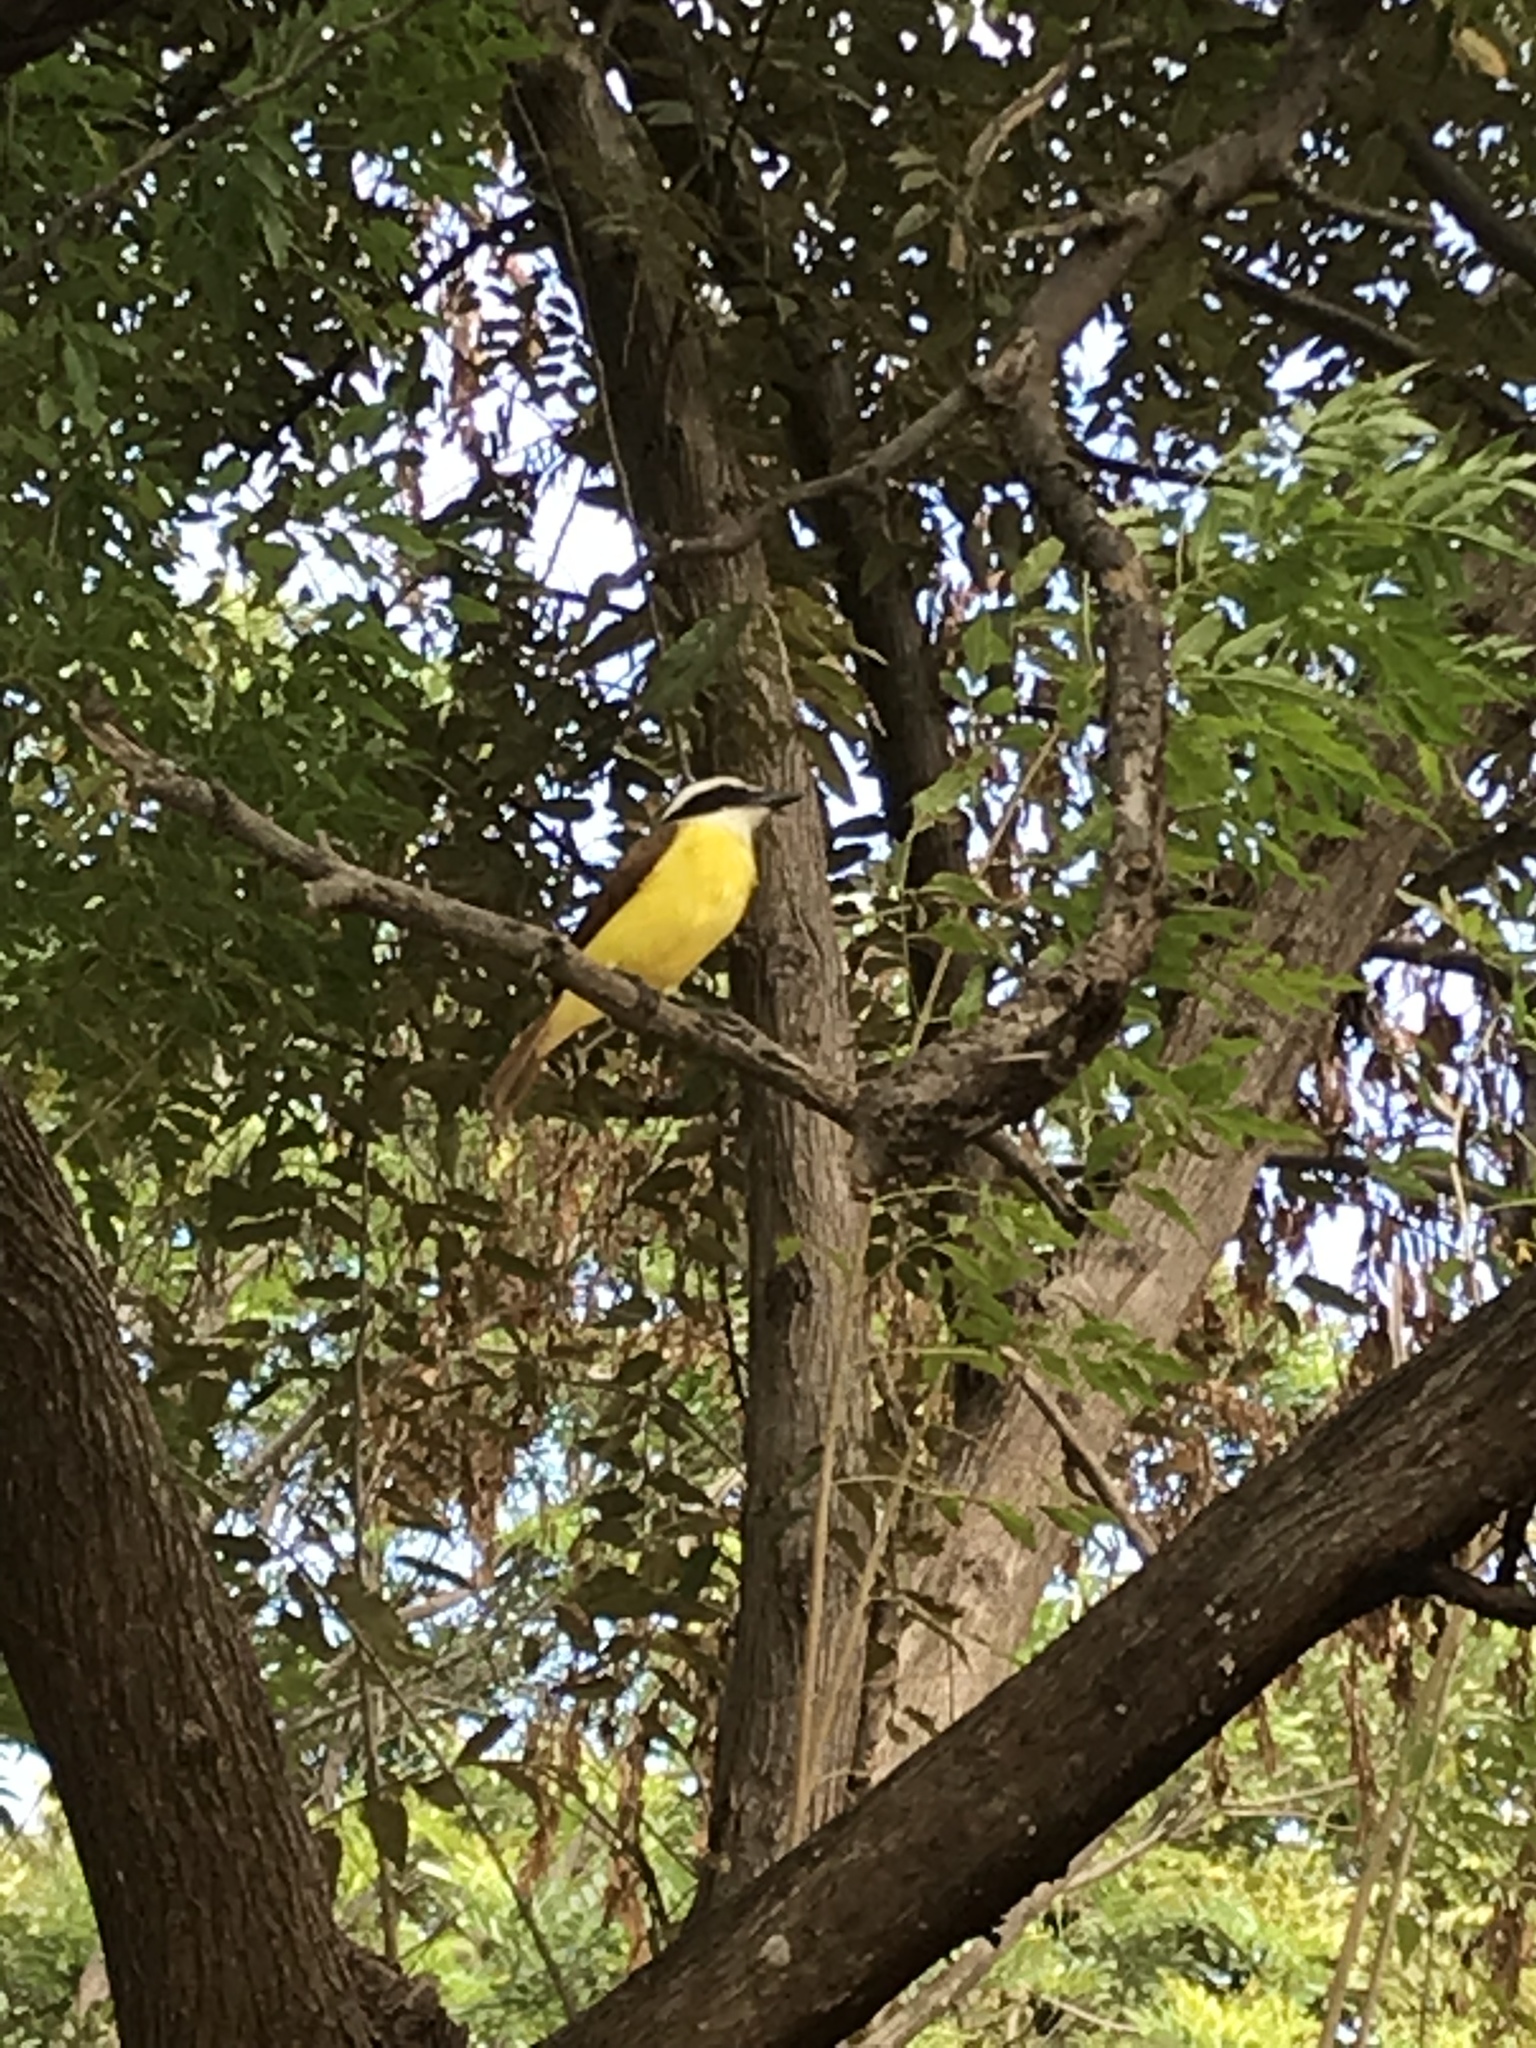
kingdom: Animalia
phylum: Chordata
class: Aves
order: Passeriformes
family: Tyrannidae
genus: Pitangus
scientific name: Pitangus sulphuratus
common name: Great kiskadee
